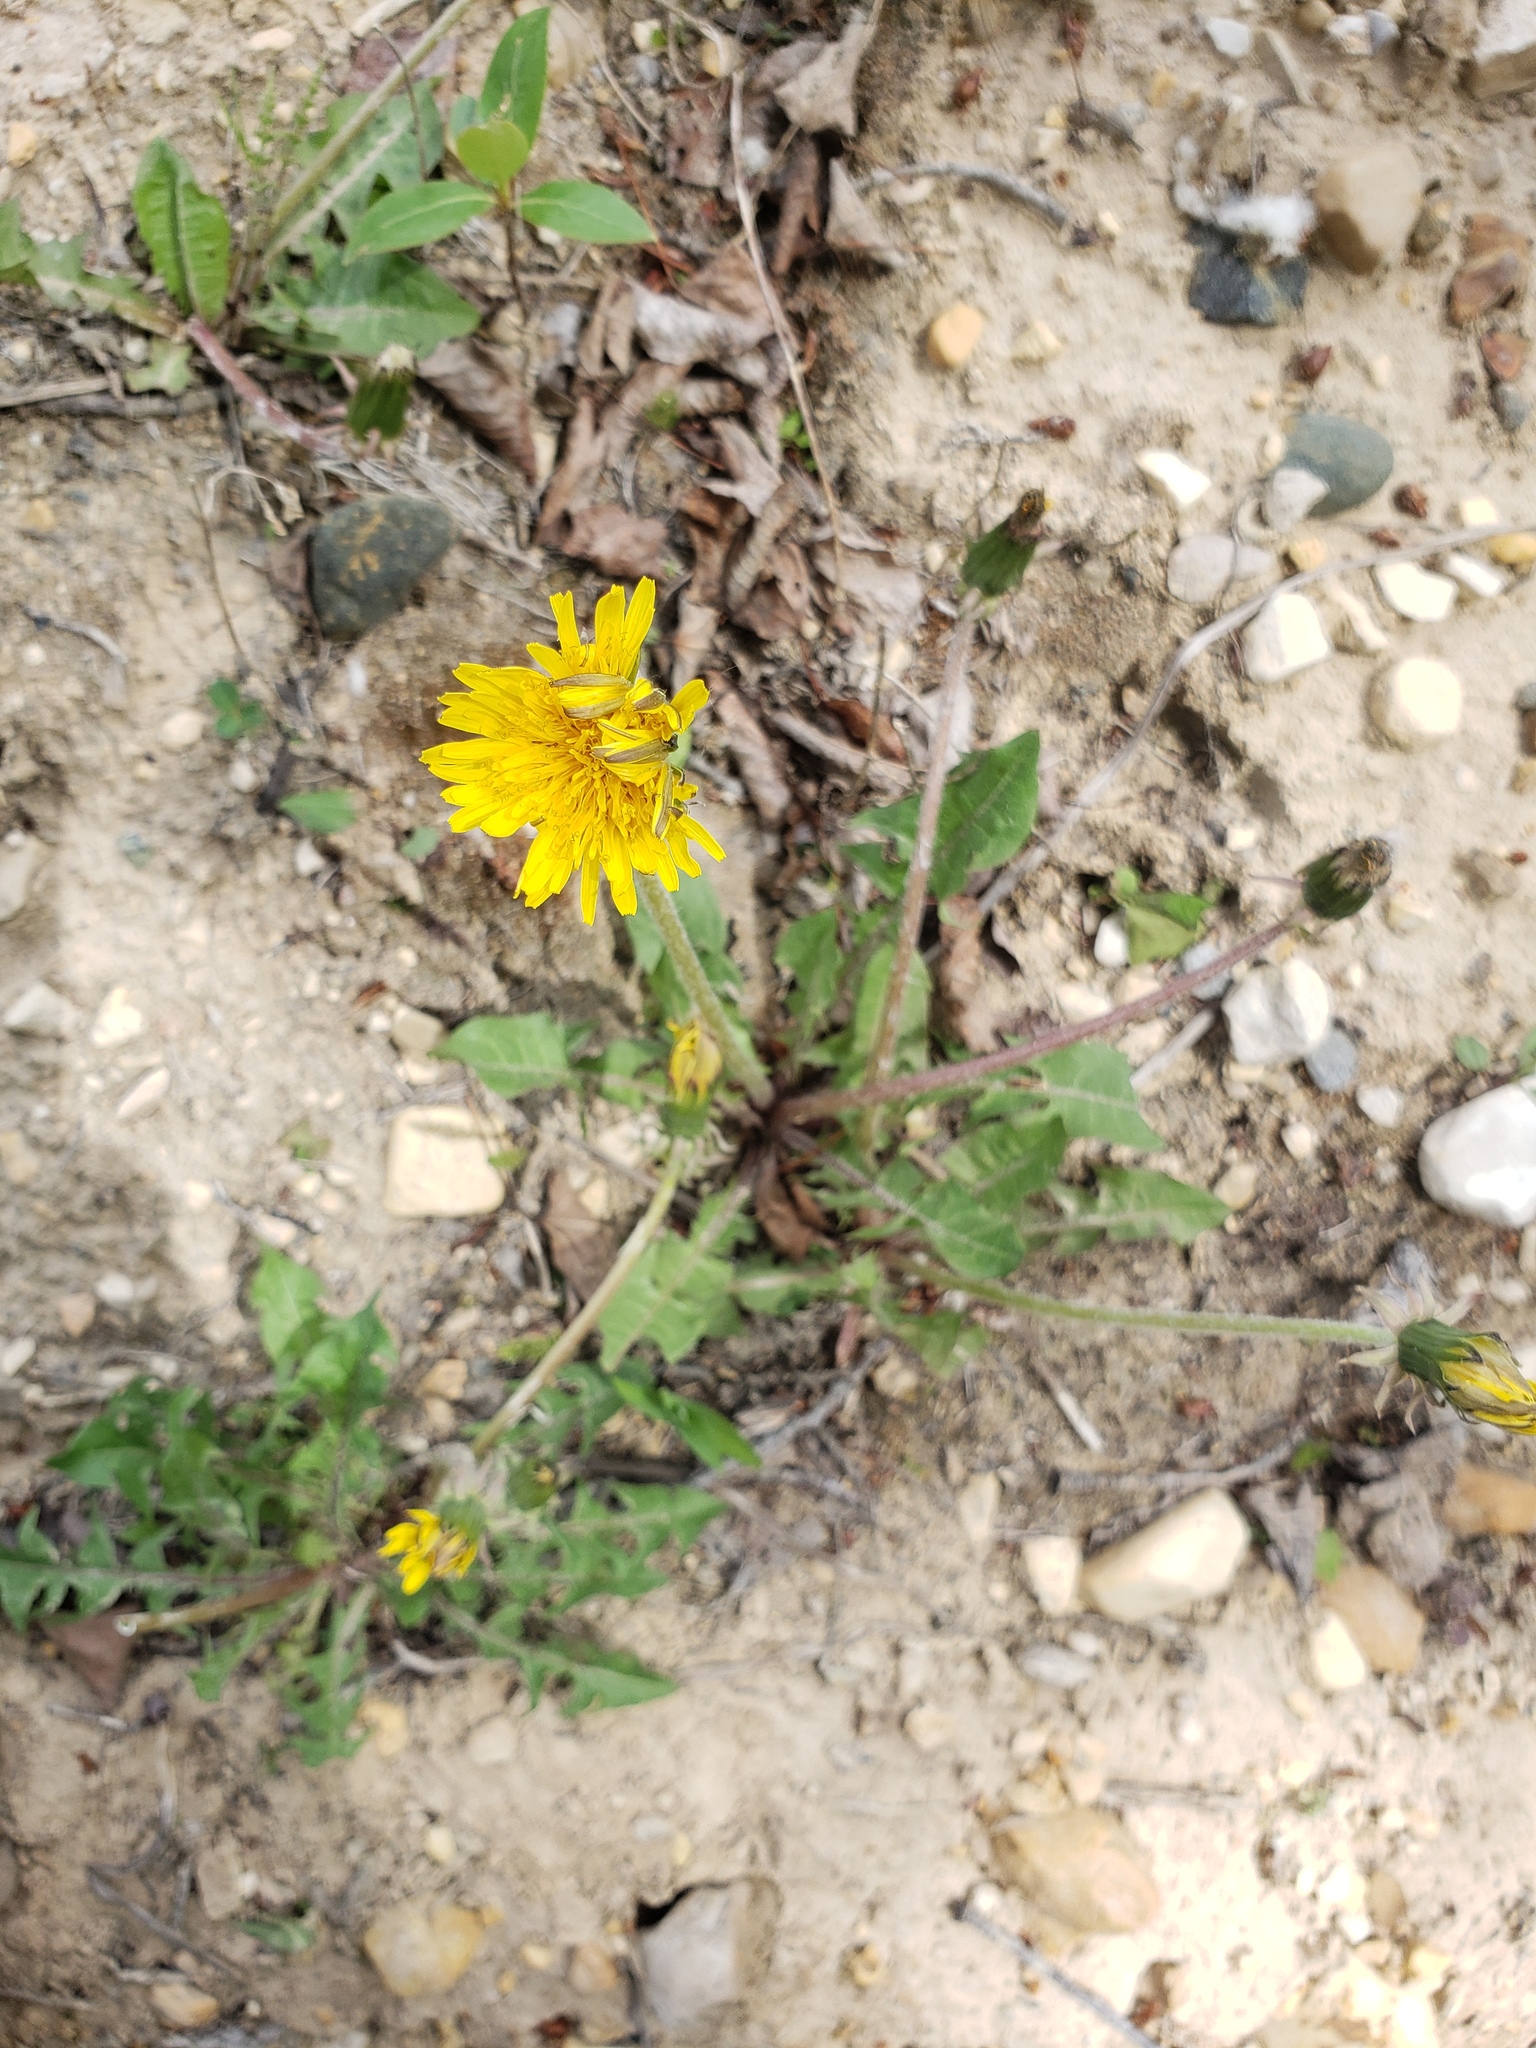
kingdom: Plantae
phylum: Tracheophyta
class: Magnoliopsida
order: Asterales
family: Asteraceae
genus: Taraxacum
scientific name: Taraxacum officinale
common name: Common dandelion
